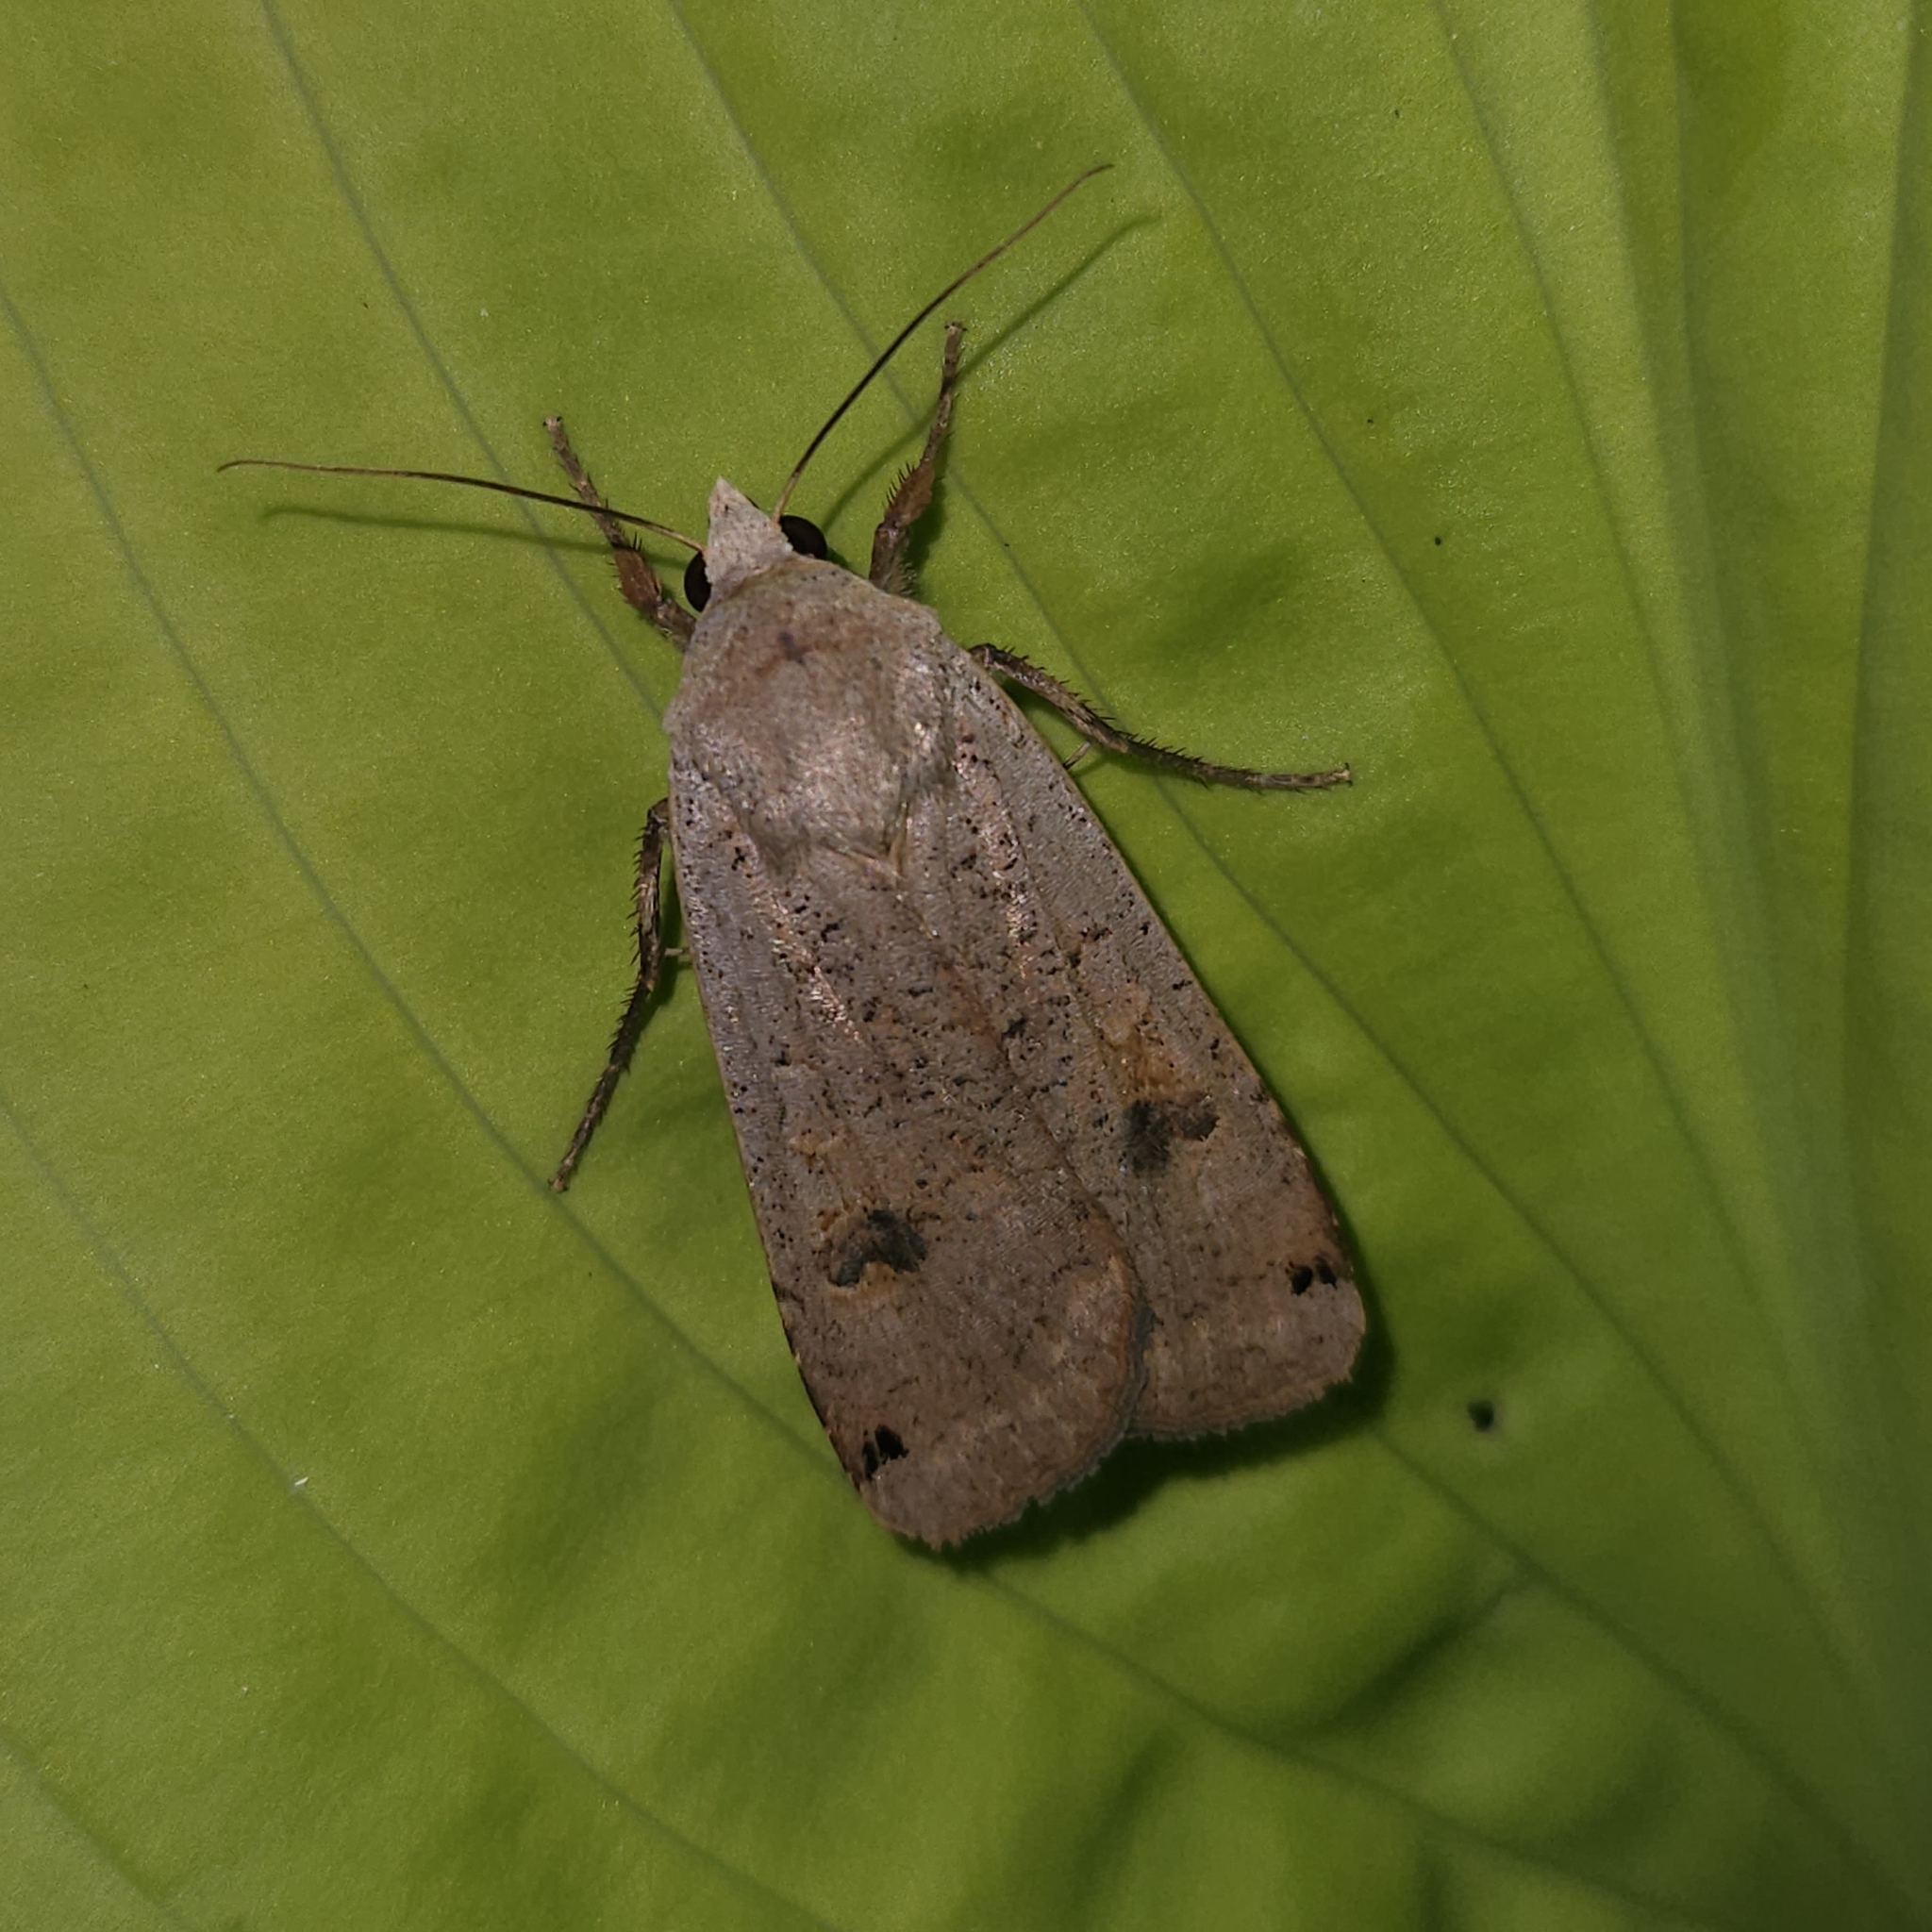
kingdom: Animalia
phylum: Arthropoda
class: Insecta
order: Lepidoptera
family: Noctuidae
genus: Noctua
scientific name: Noctua pronuba
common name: Large yellow underwing
